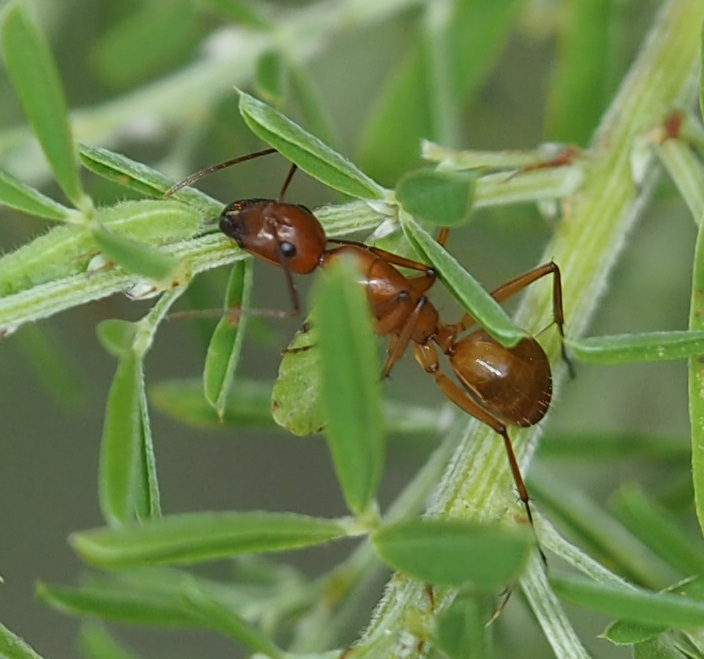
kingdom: Animalia
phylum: Arthropoda
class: Insecta
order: Hymenoptera
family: Formicidae
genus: Camponotus
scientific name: Camponotus castaneus
